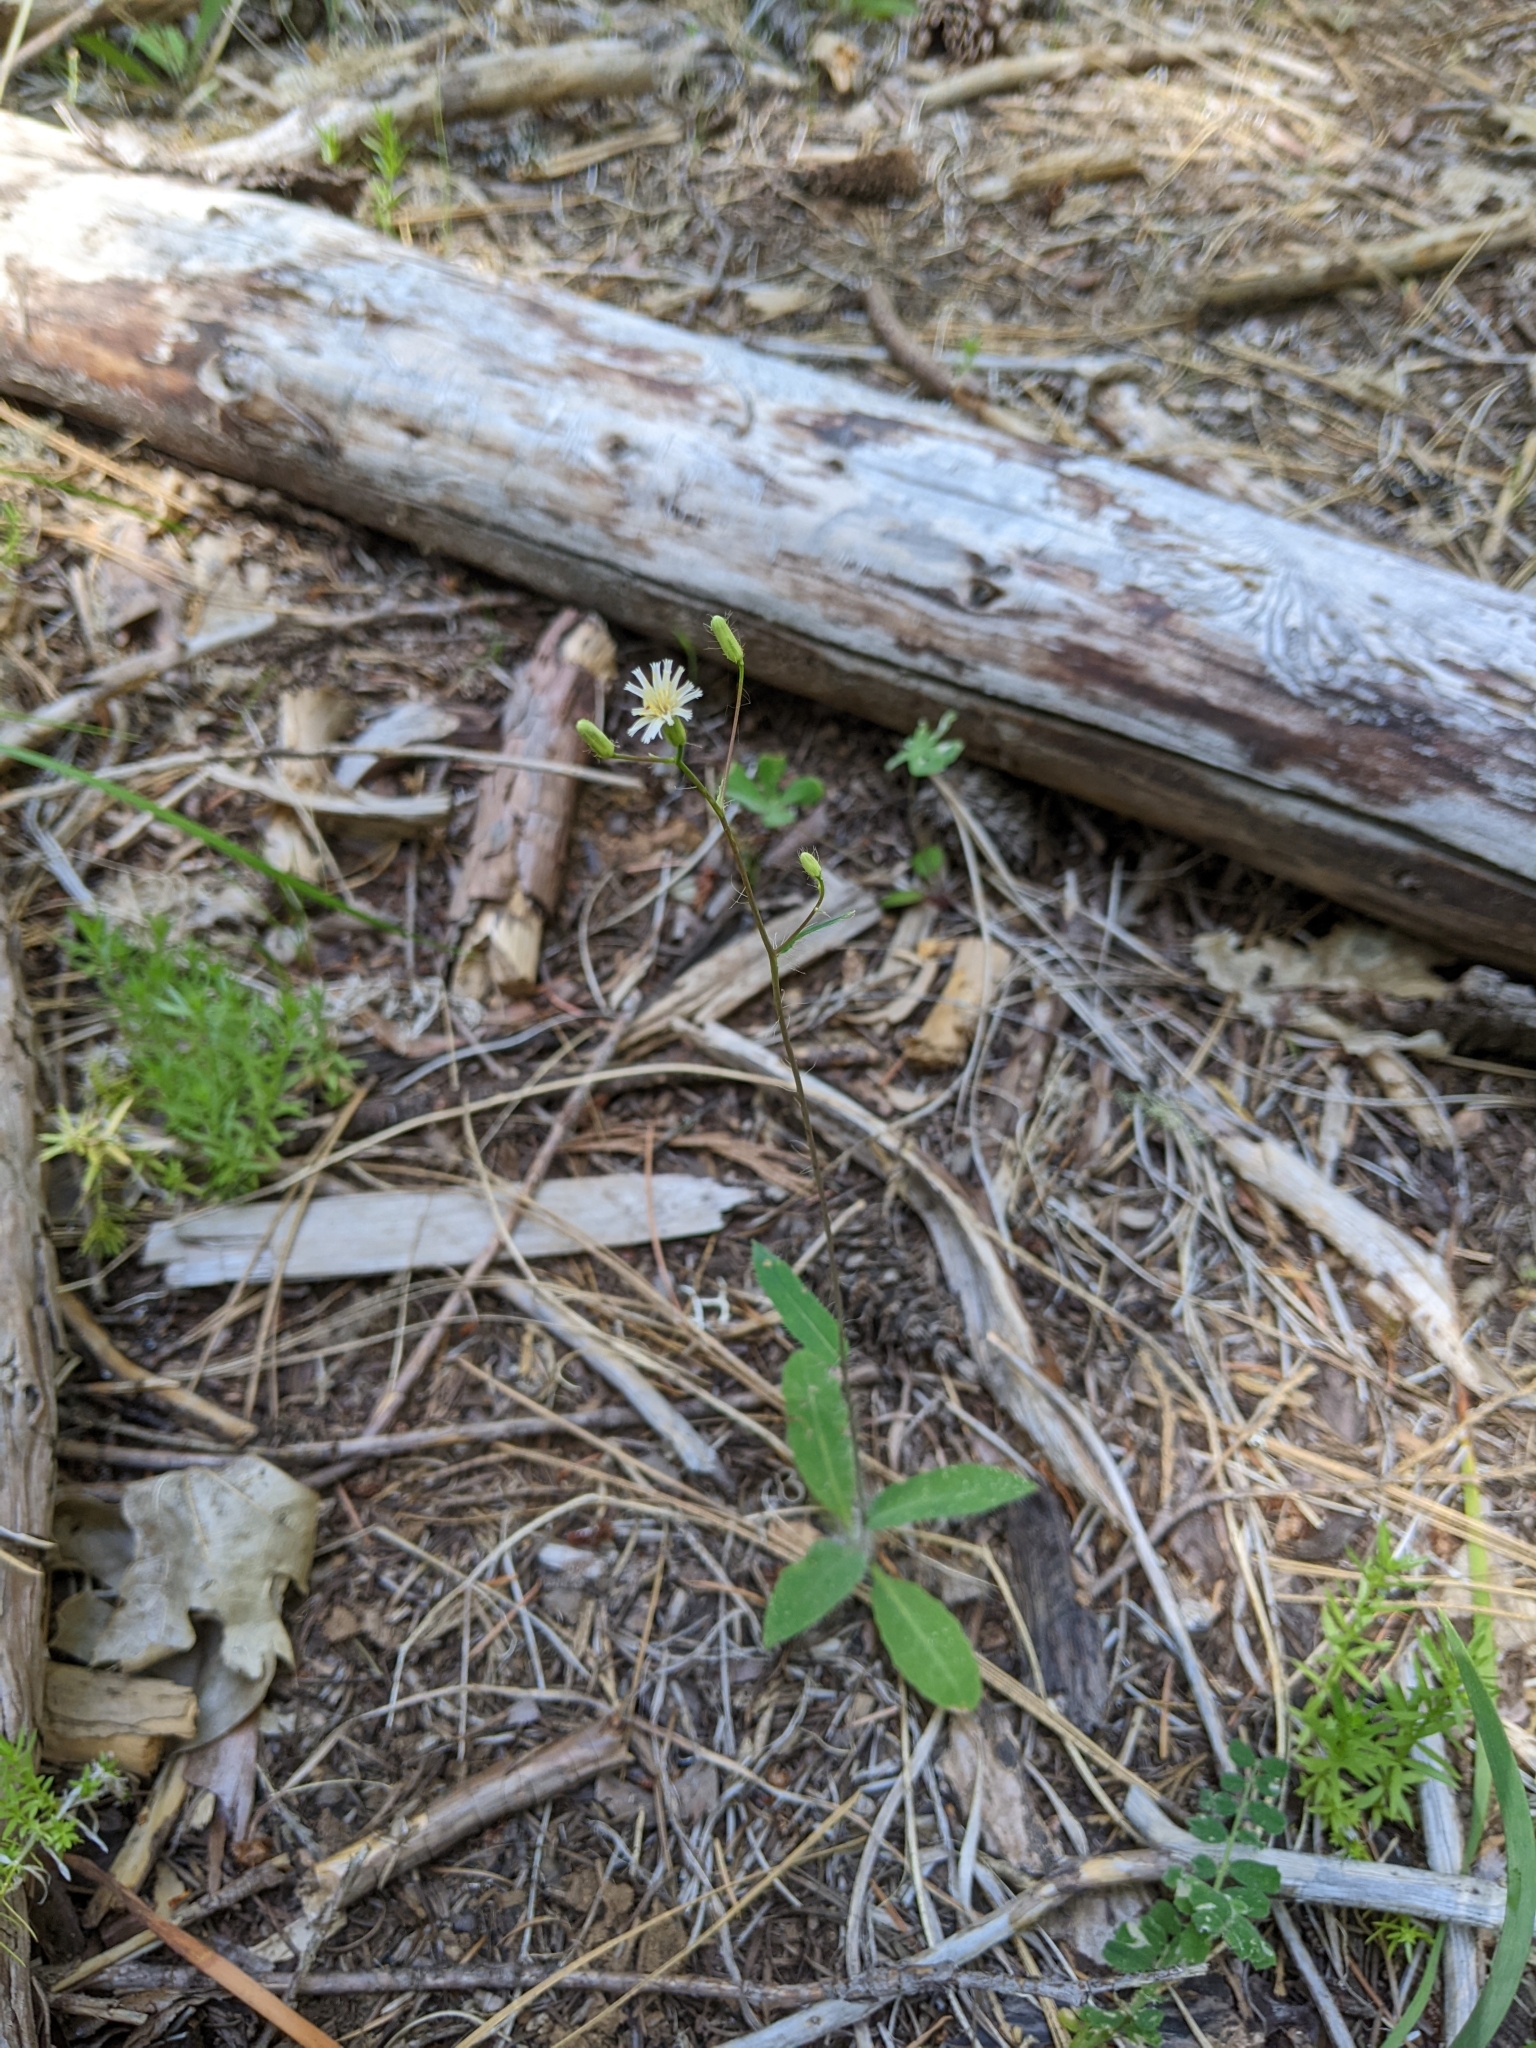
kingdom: Plantae
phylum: Tracheophyta
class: Magnoliopsida
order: Asterales
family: Asteraceae
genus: Hieracium
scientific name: Hieracium albiflorum
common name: White hawkweed
